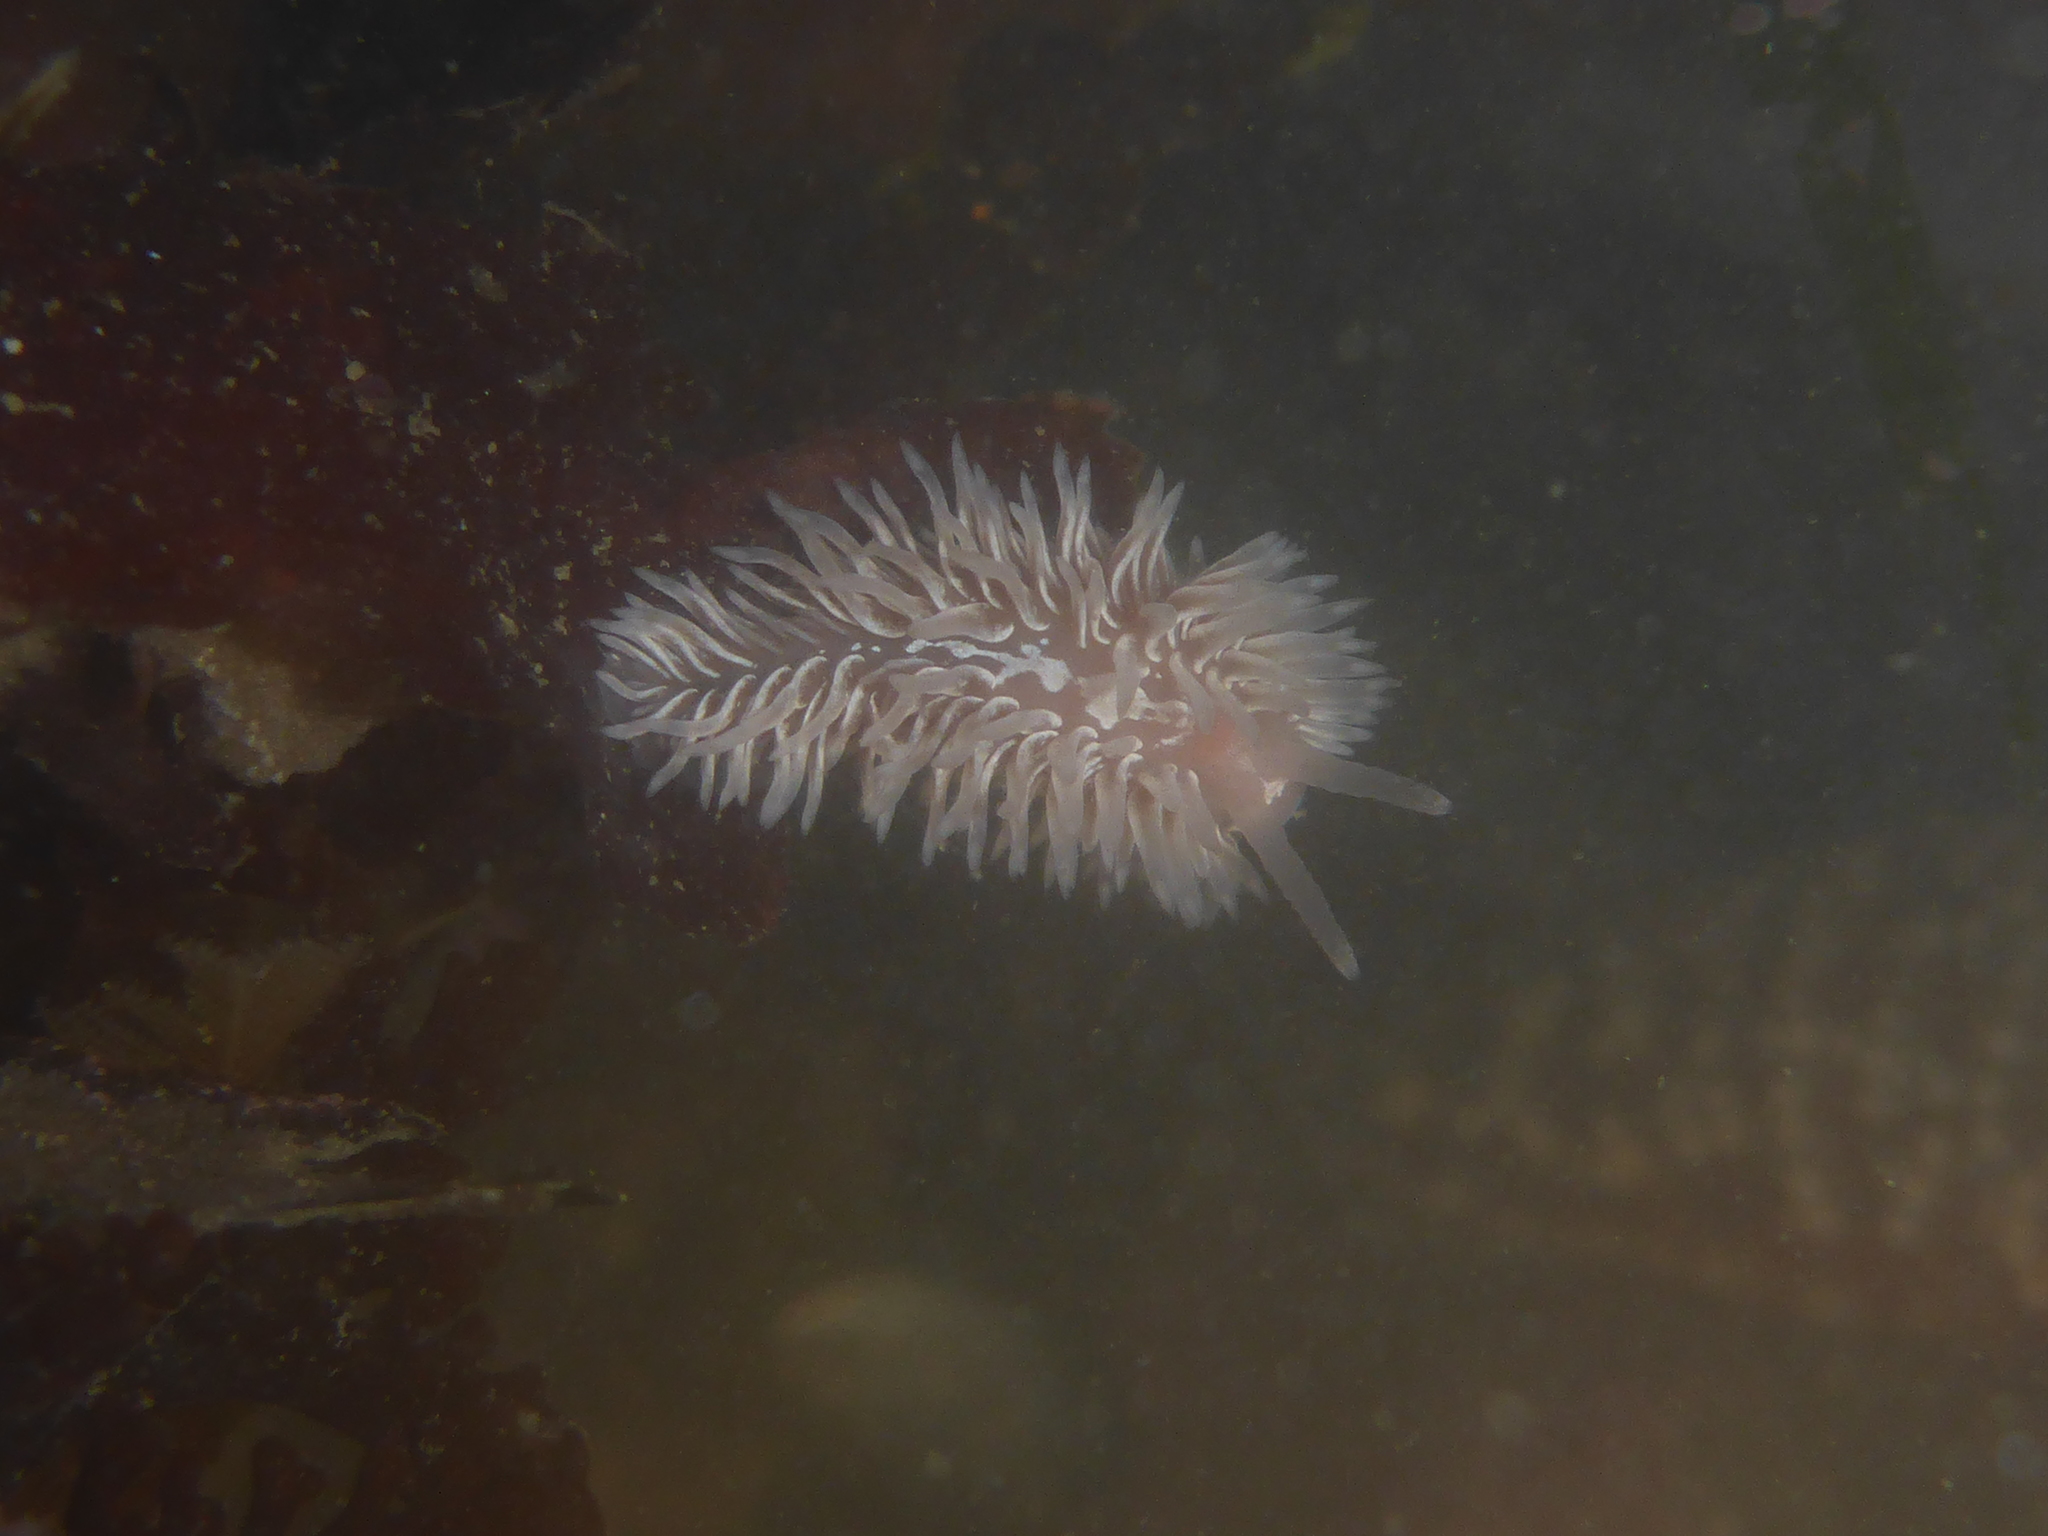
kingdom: Animalia
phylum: Mollusca
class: Gastropoda
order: Nudibranchia
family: Aeolidiidae
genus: Aeolidia
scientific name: Aeolidia loui
